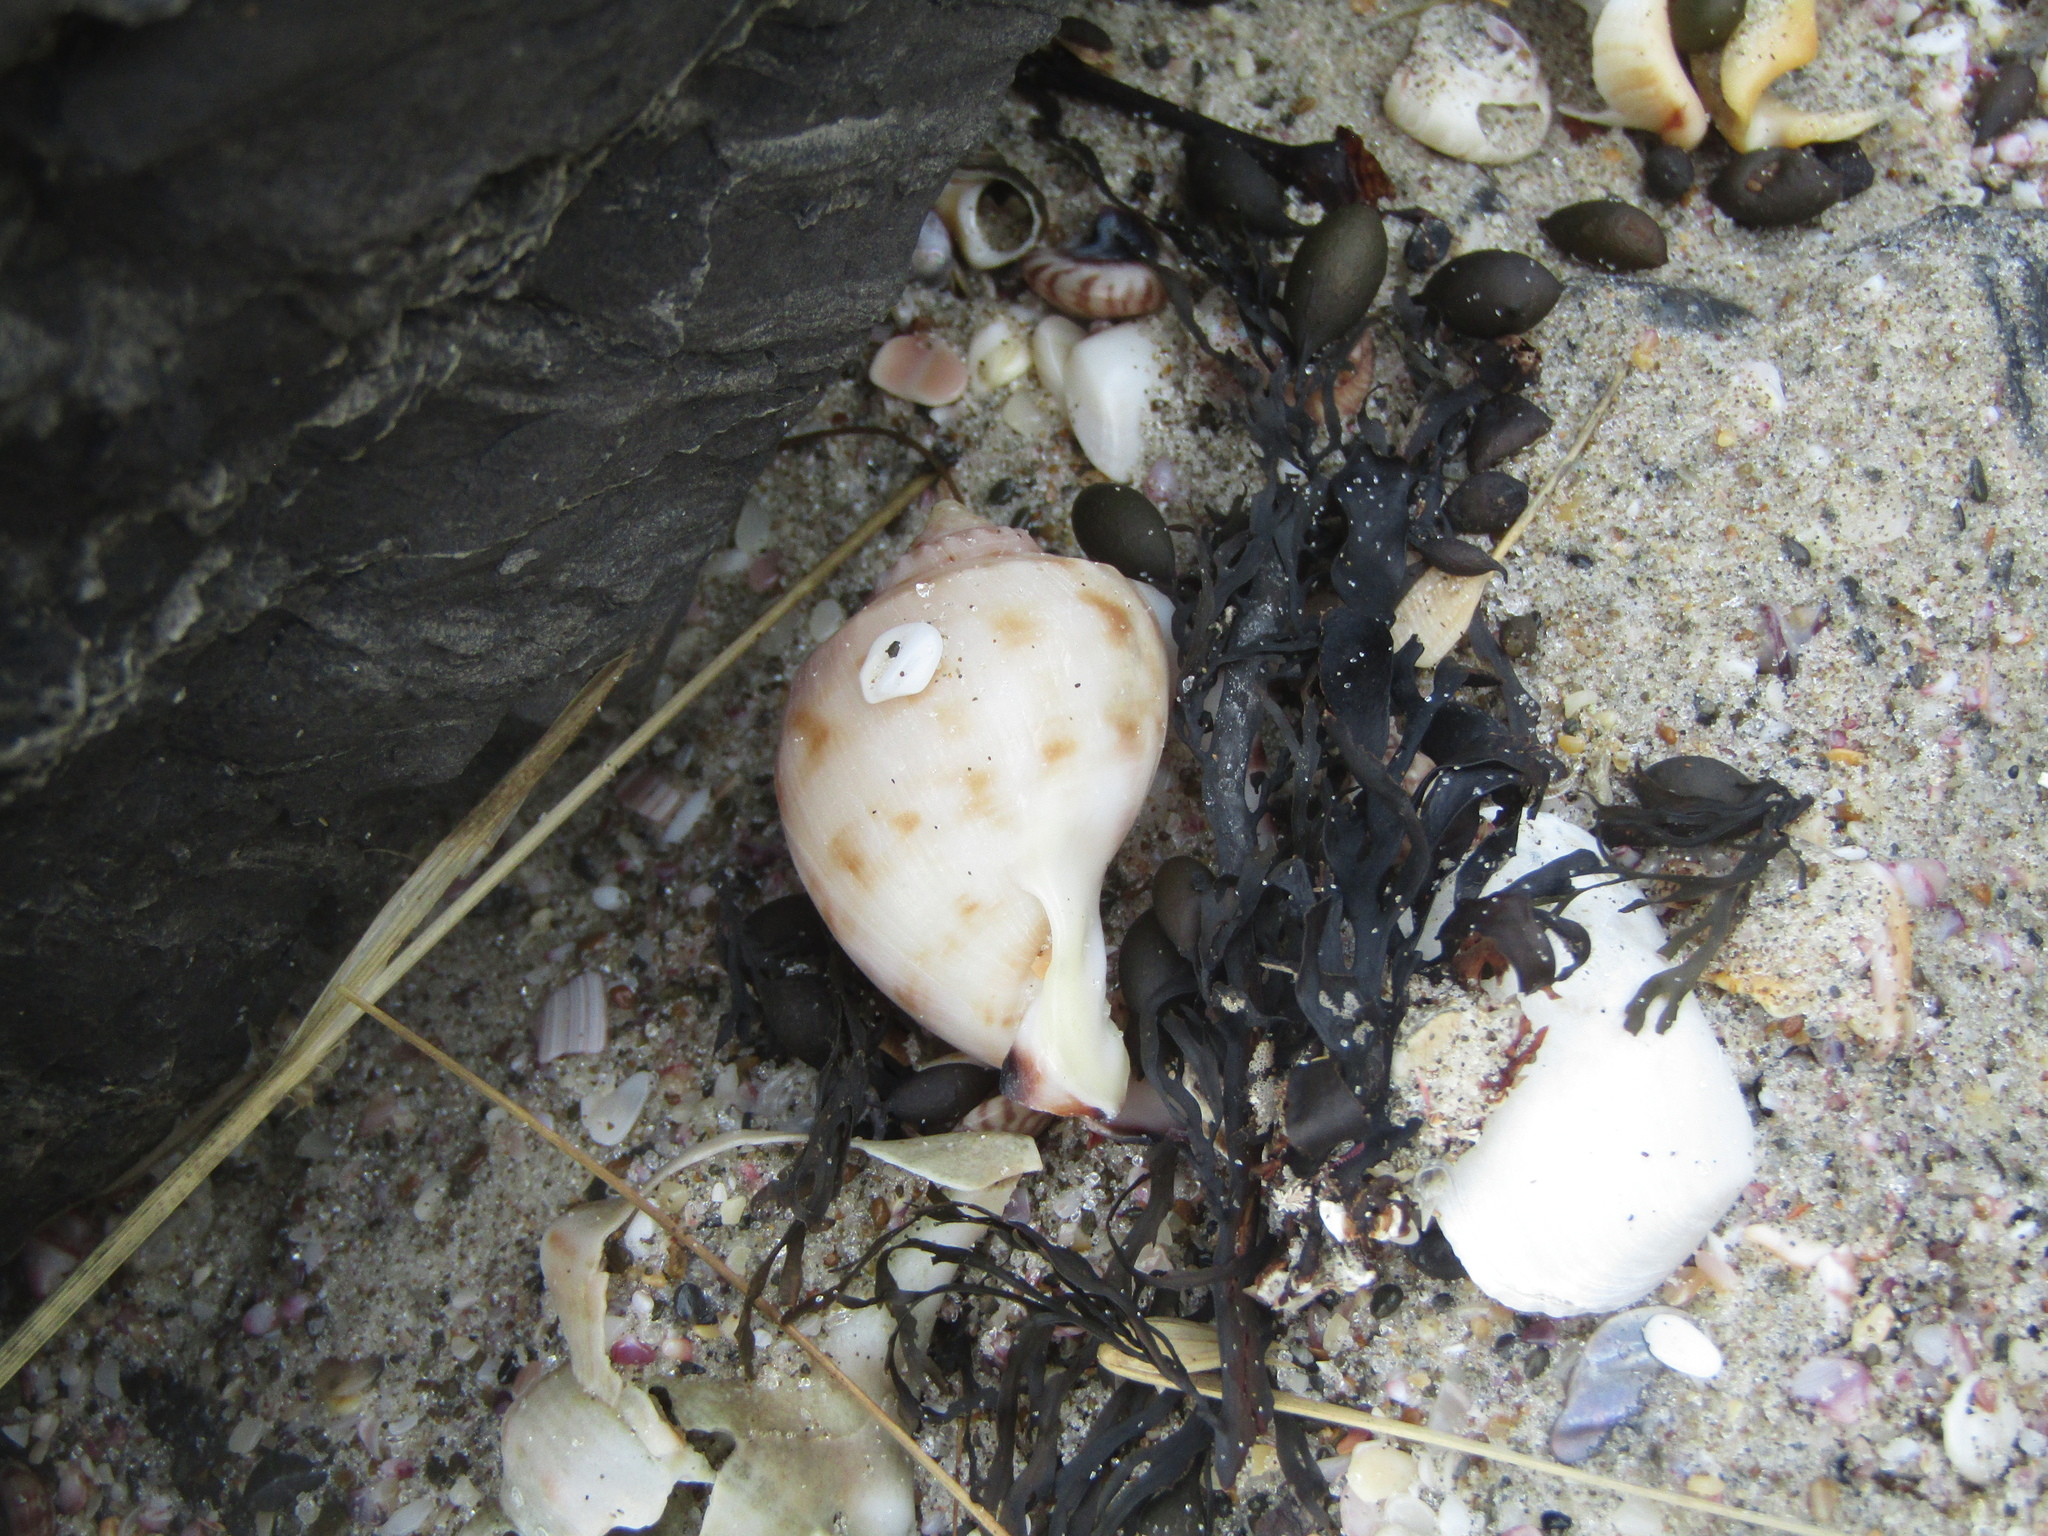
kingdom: Animalia
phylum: Mollusca
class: Gastropoda
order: Littorinimorpha
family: Cassidae
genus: Semicassis
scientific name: Semicassis pyrum
